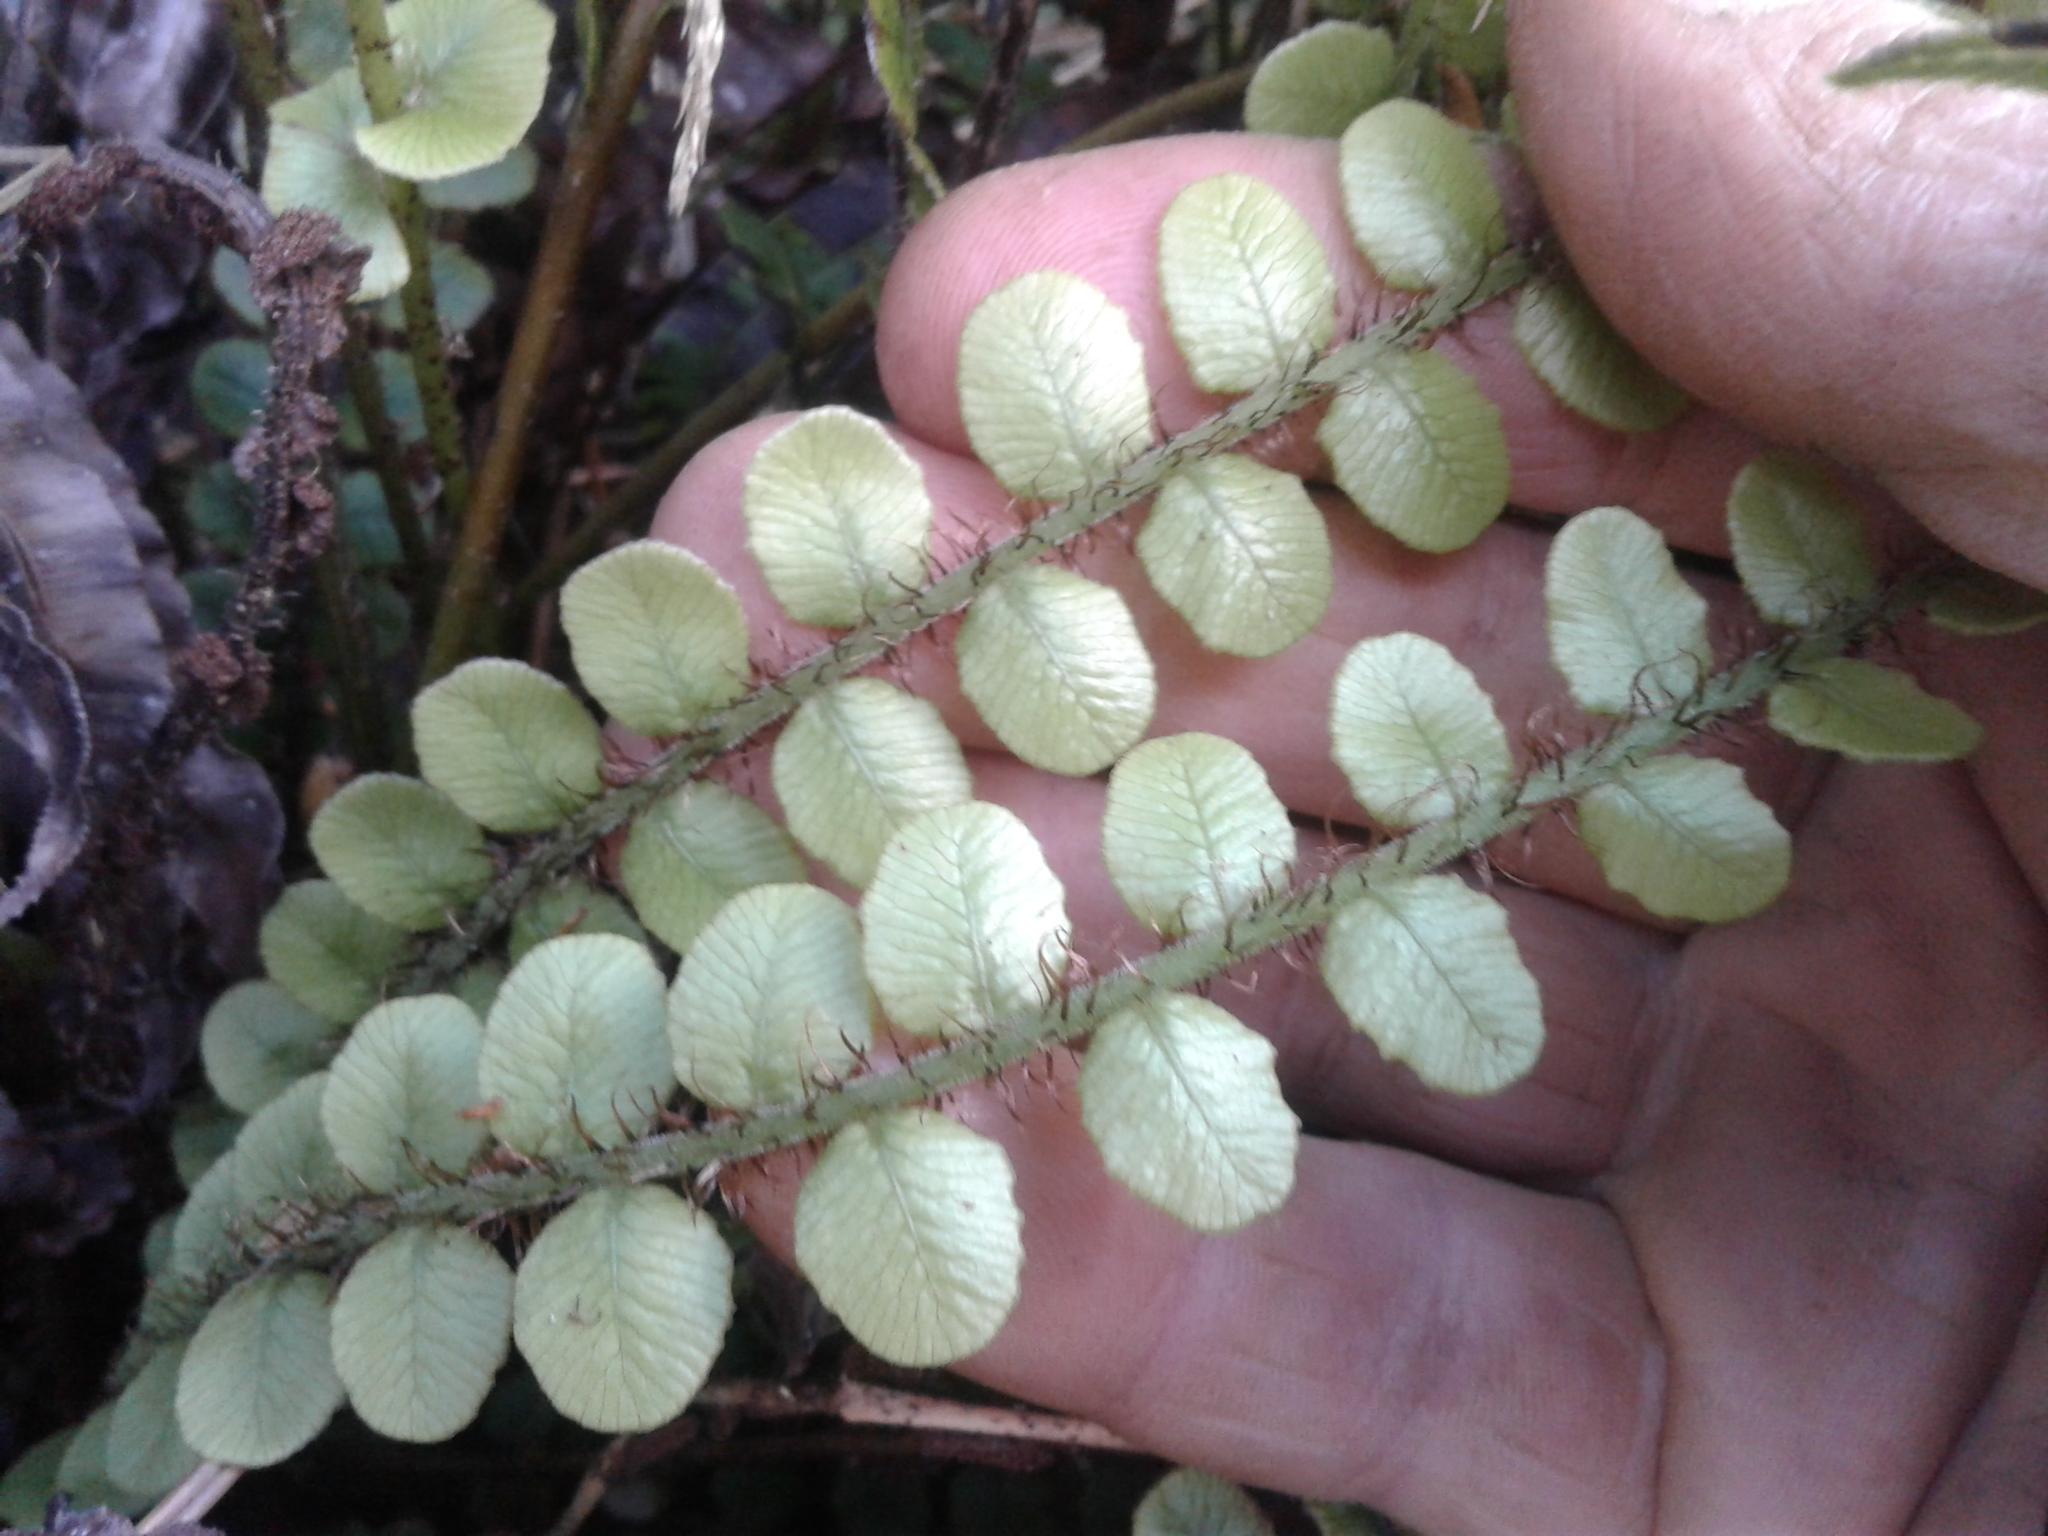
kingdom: Plantae
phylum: Tracheophyta
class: Polypodiopsida
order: Polypodiales
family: Blechnaceae
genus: Cranfillia
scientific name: Cranfillia fluviatilis
